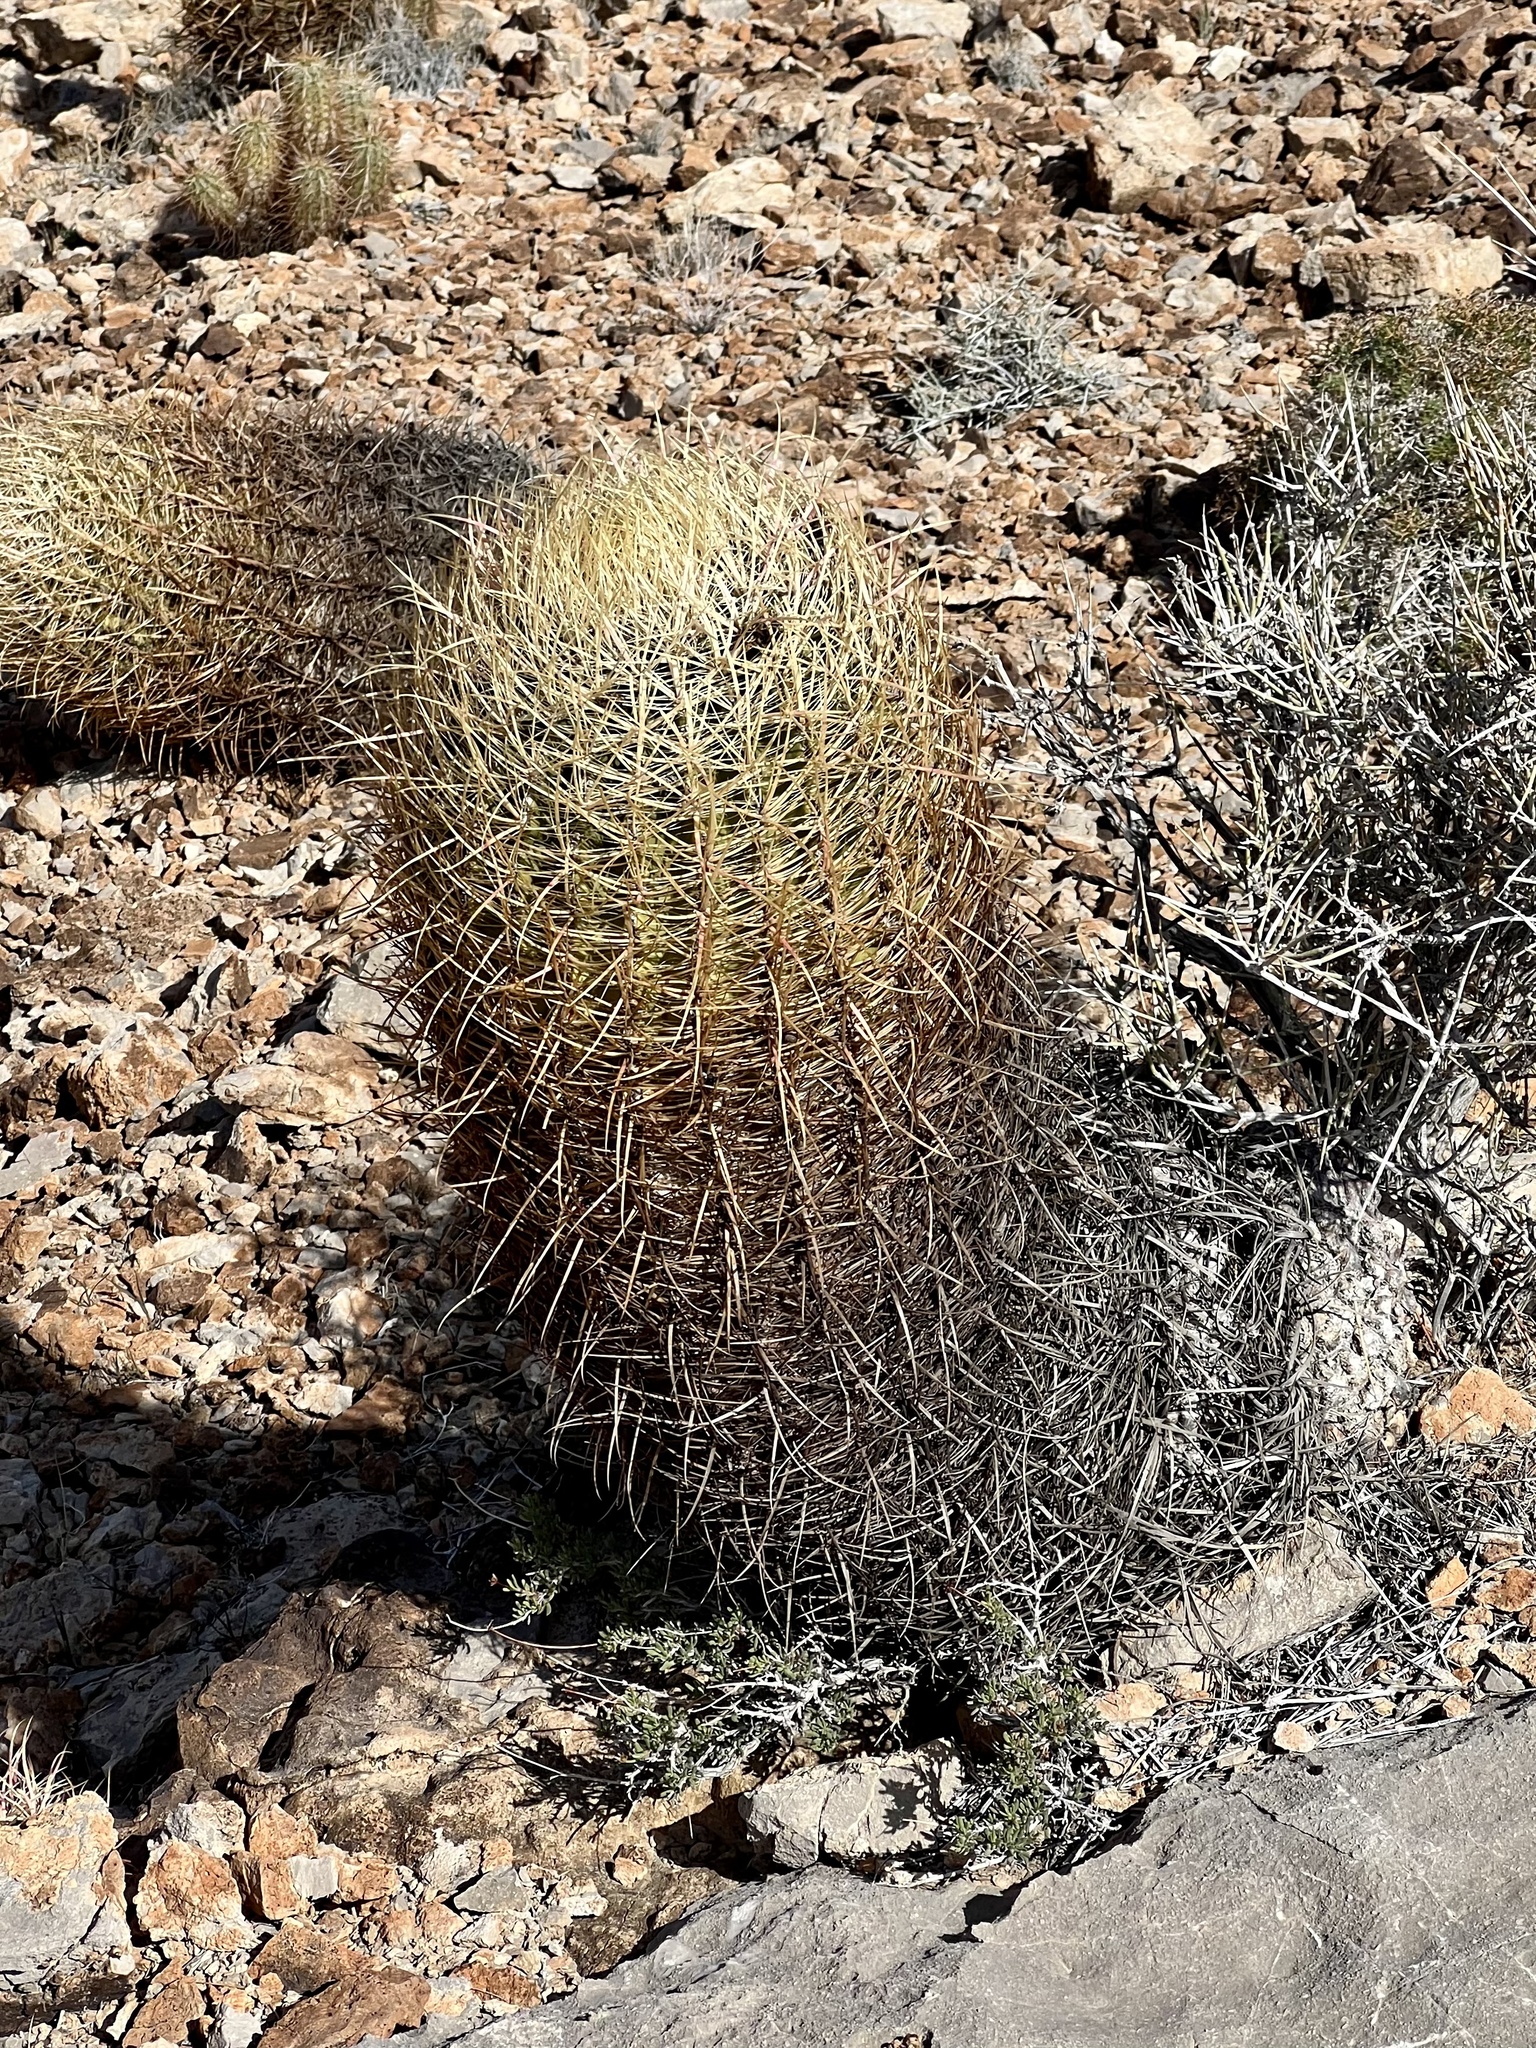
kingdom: Plantae
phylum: Tracheophyta
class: Magnoliopsida
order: Caryophyllales
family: Cactaceae
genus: Ferocactus
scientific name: Ferocactus cylindraceus
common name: California barrel cactus
